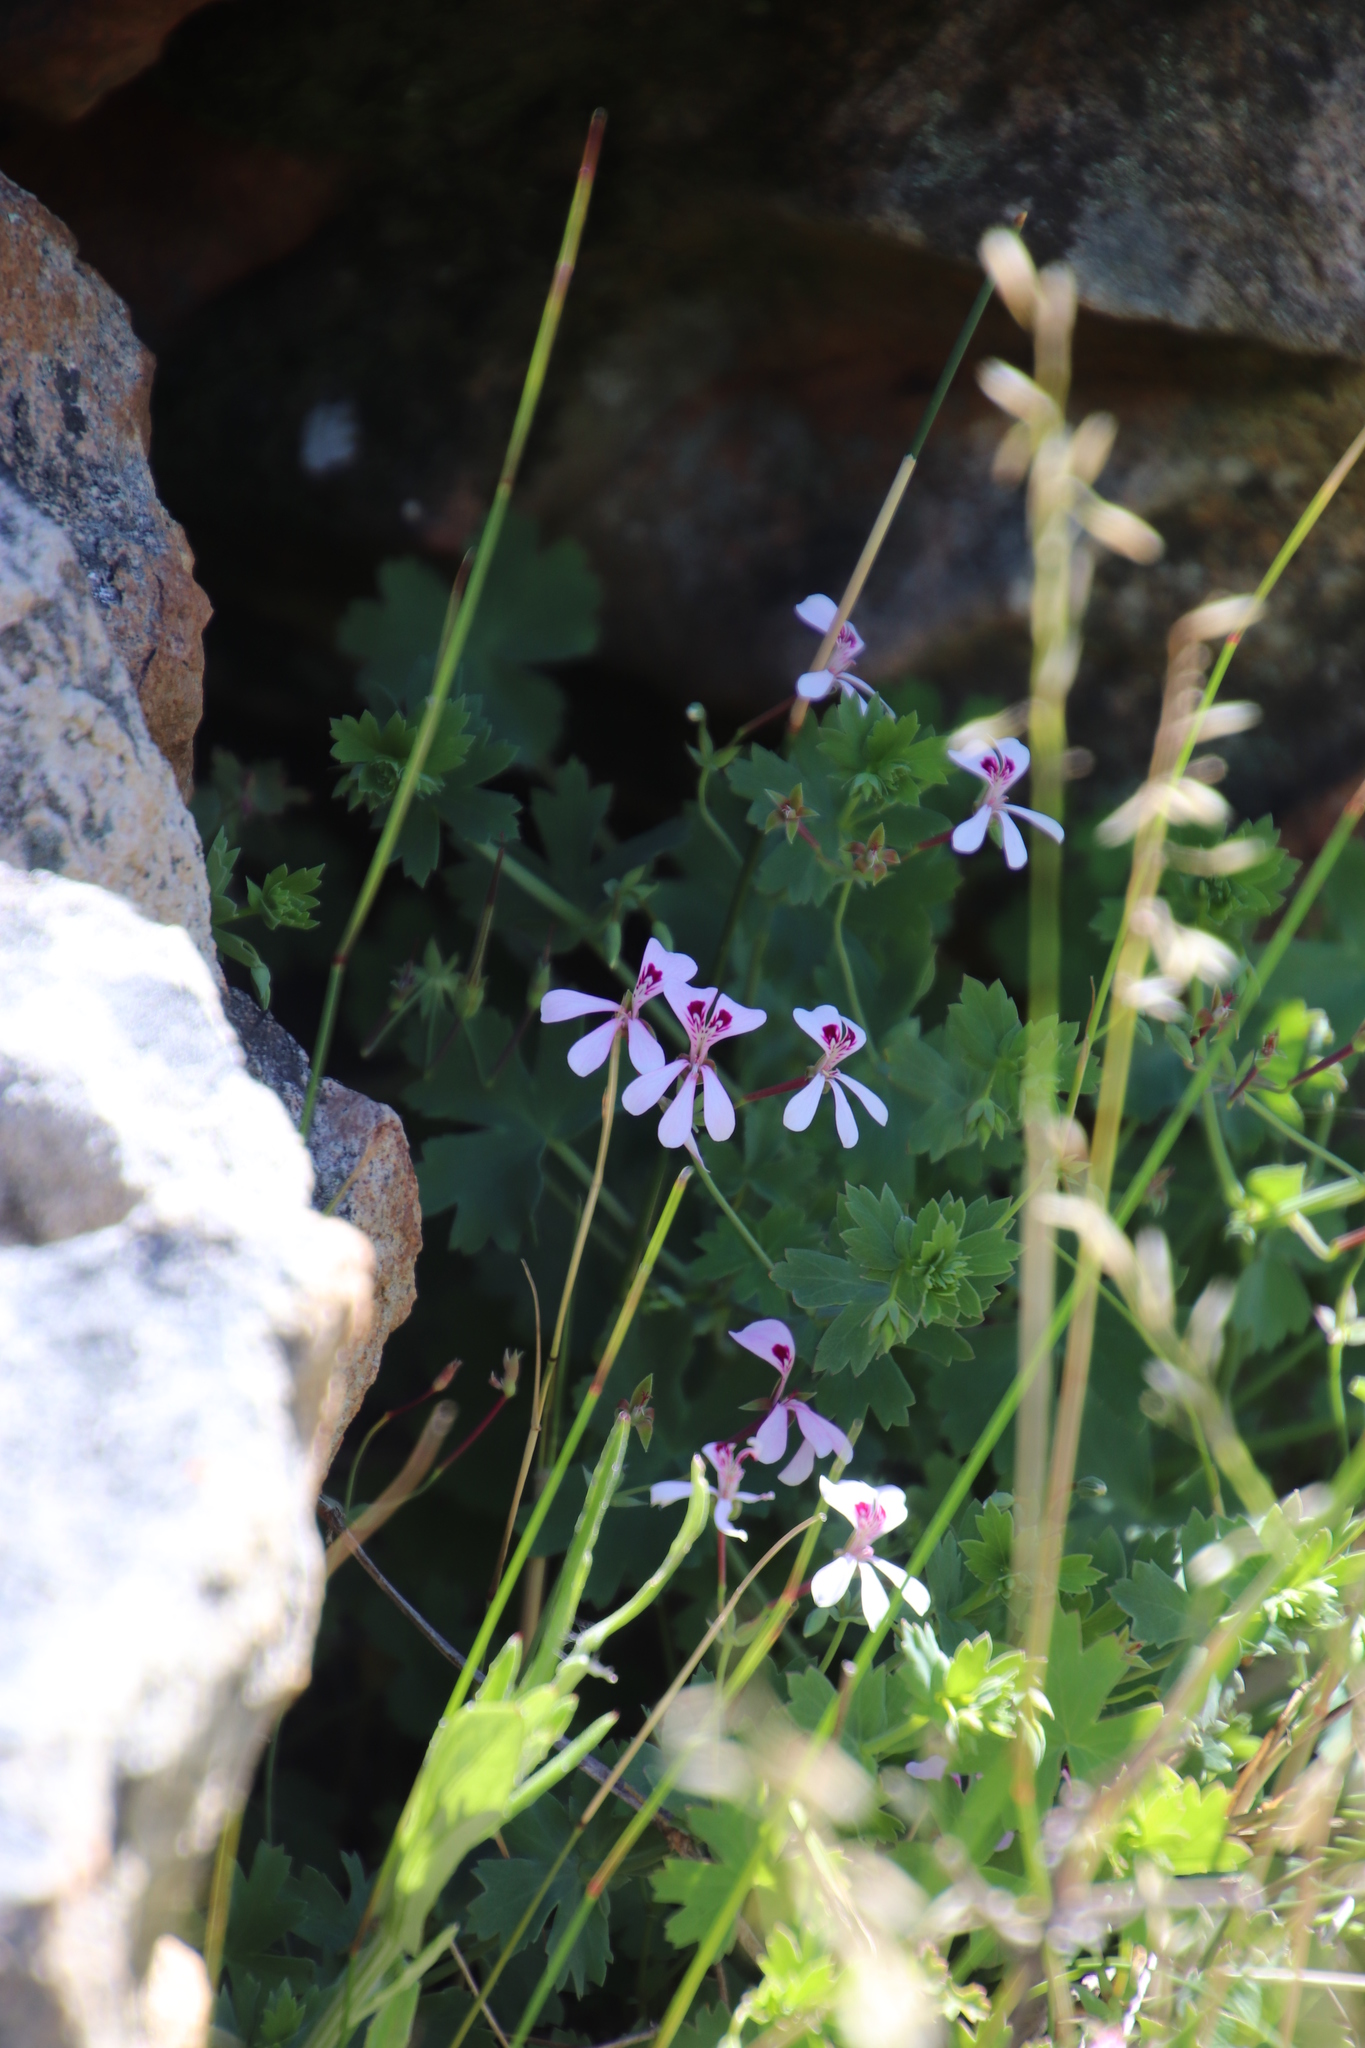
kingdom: Plantae
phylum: Tracheophyta
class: Magnoliopsida
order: Geraniales
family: Geraniaceae
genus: Pelargonium
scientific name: Pelargonium patulum
